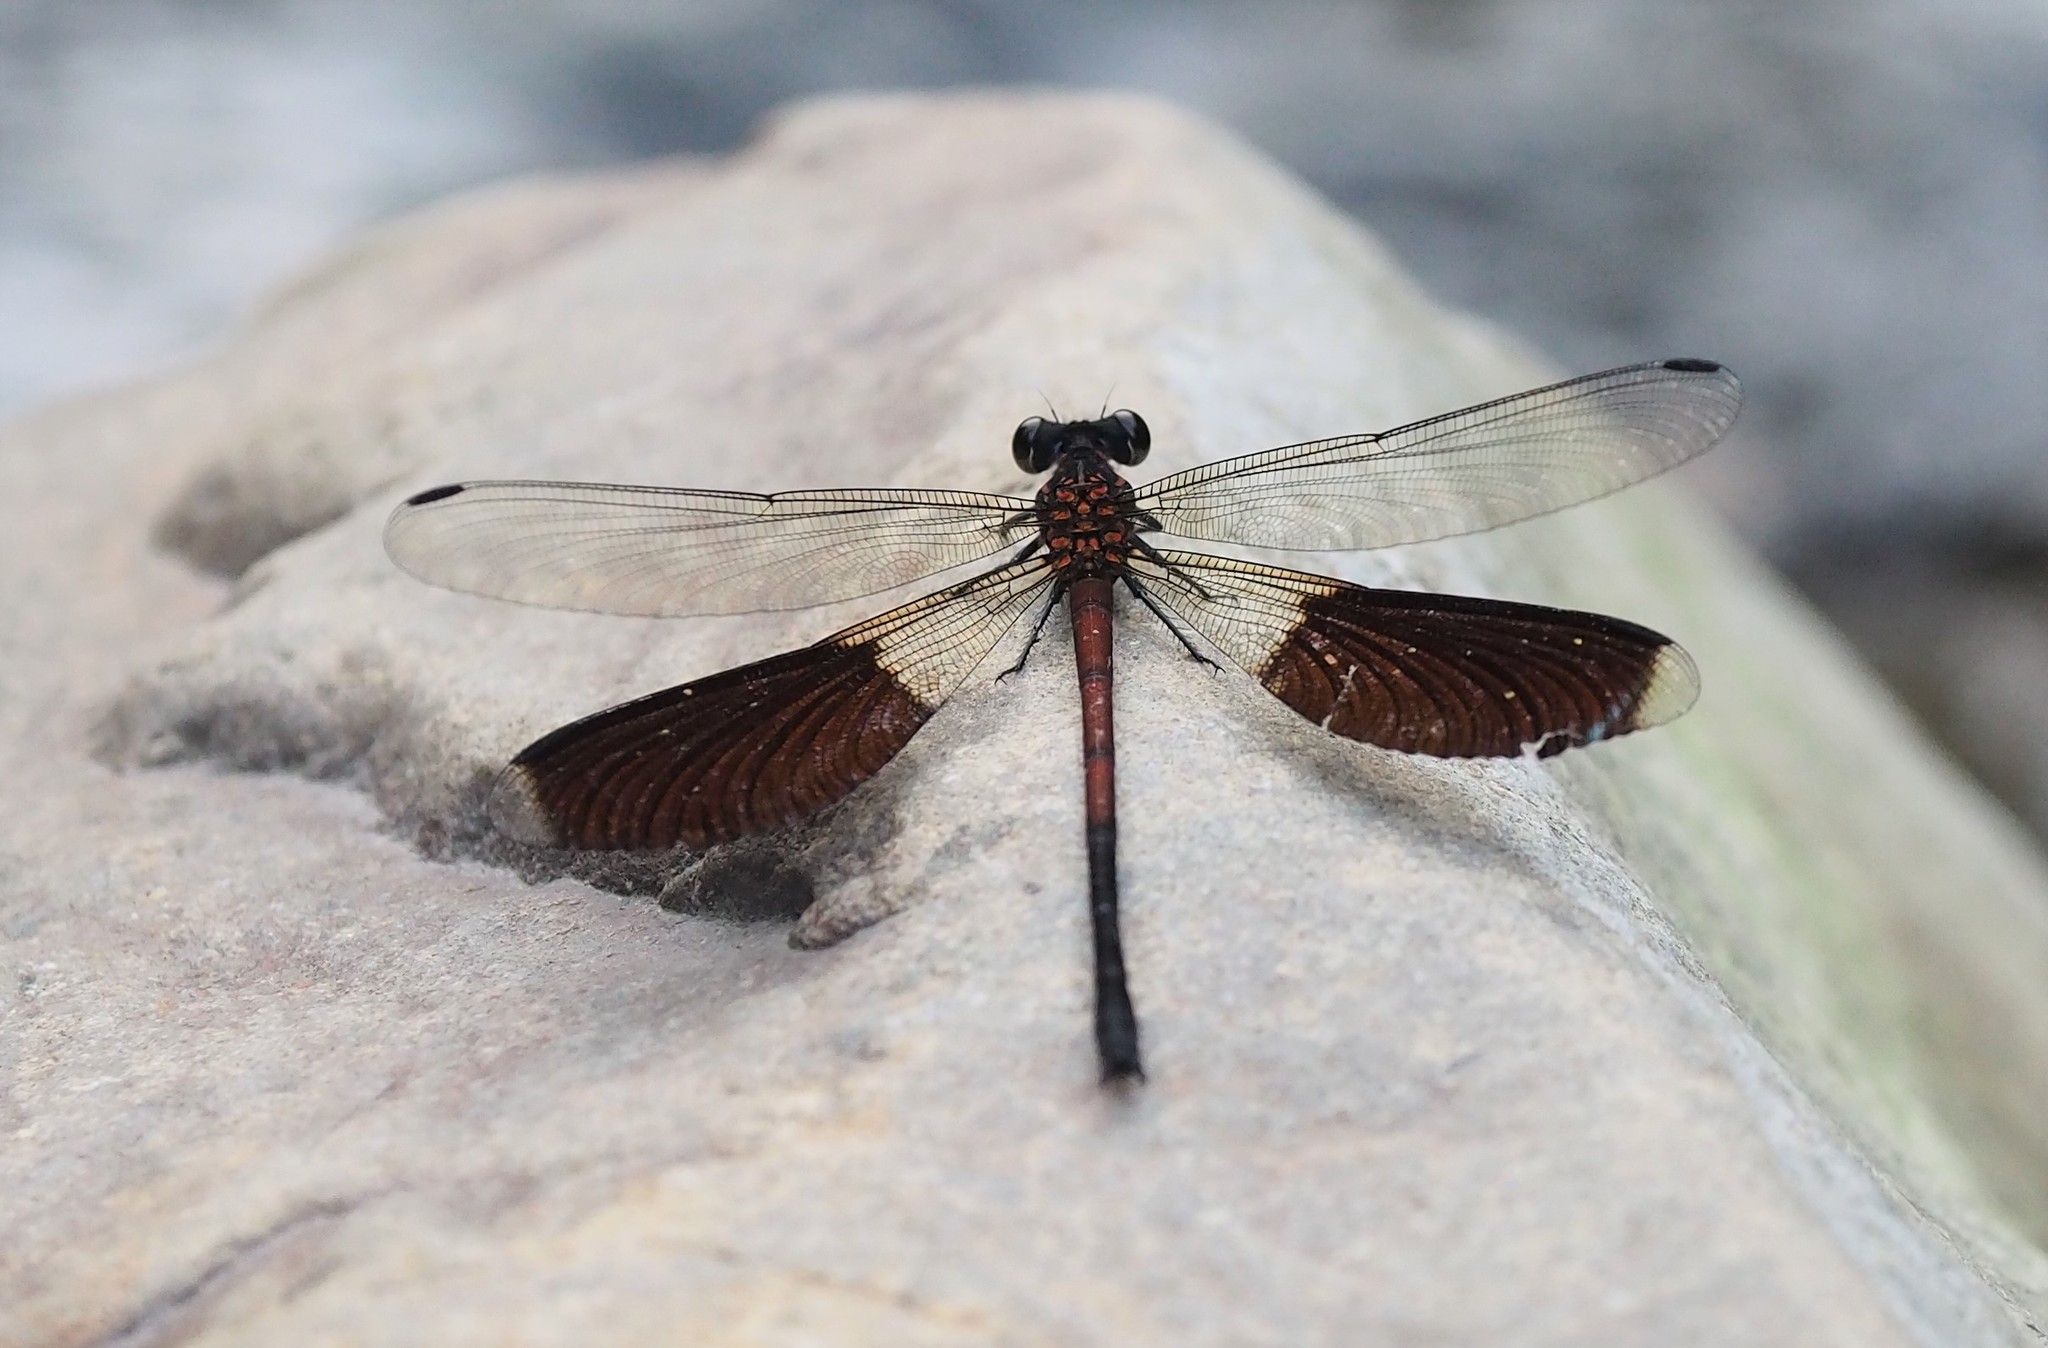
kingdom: Animalia
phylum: Arthropoda
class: Insecta
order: Odonata
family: Euphaeidae
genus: Euphaea
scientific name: Euphaea formosa
